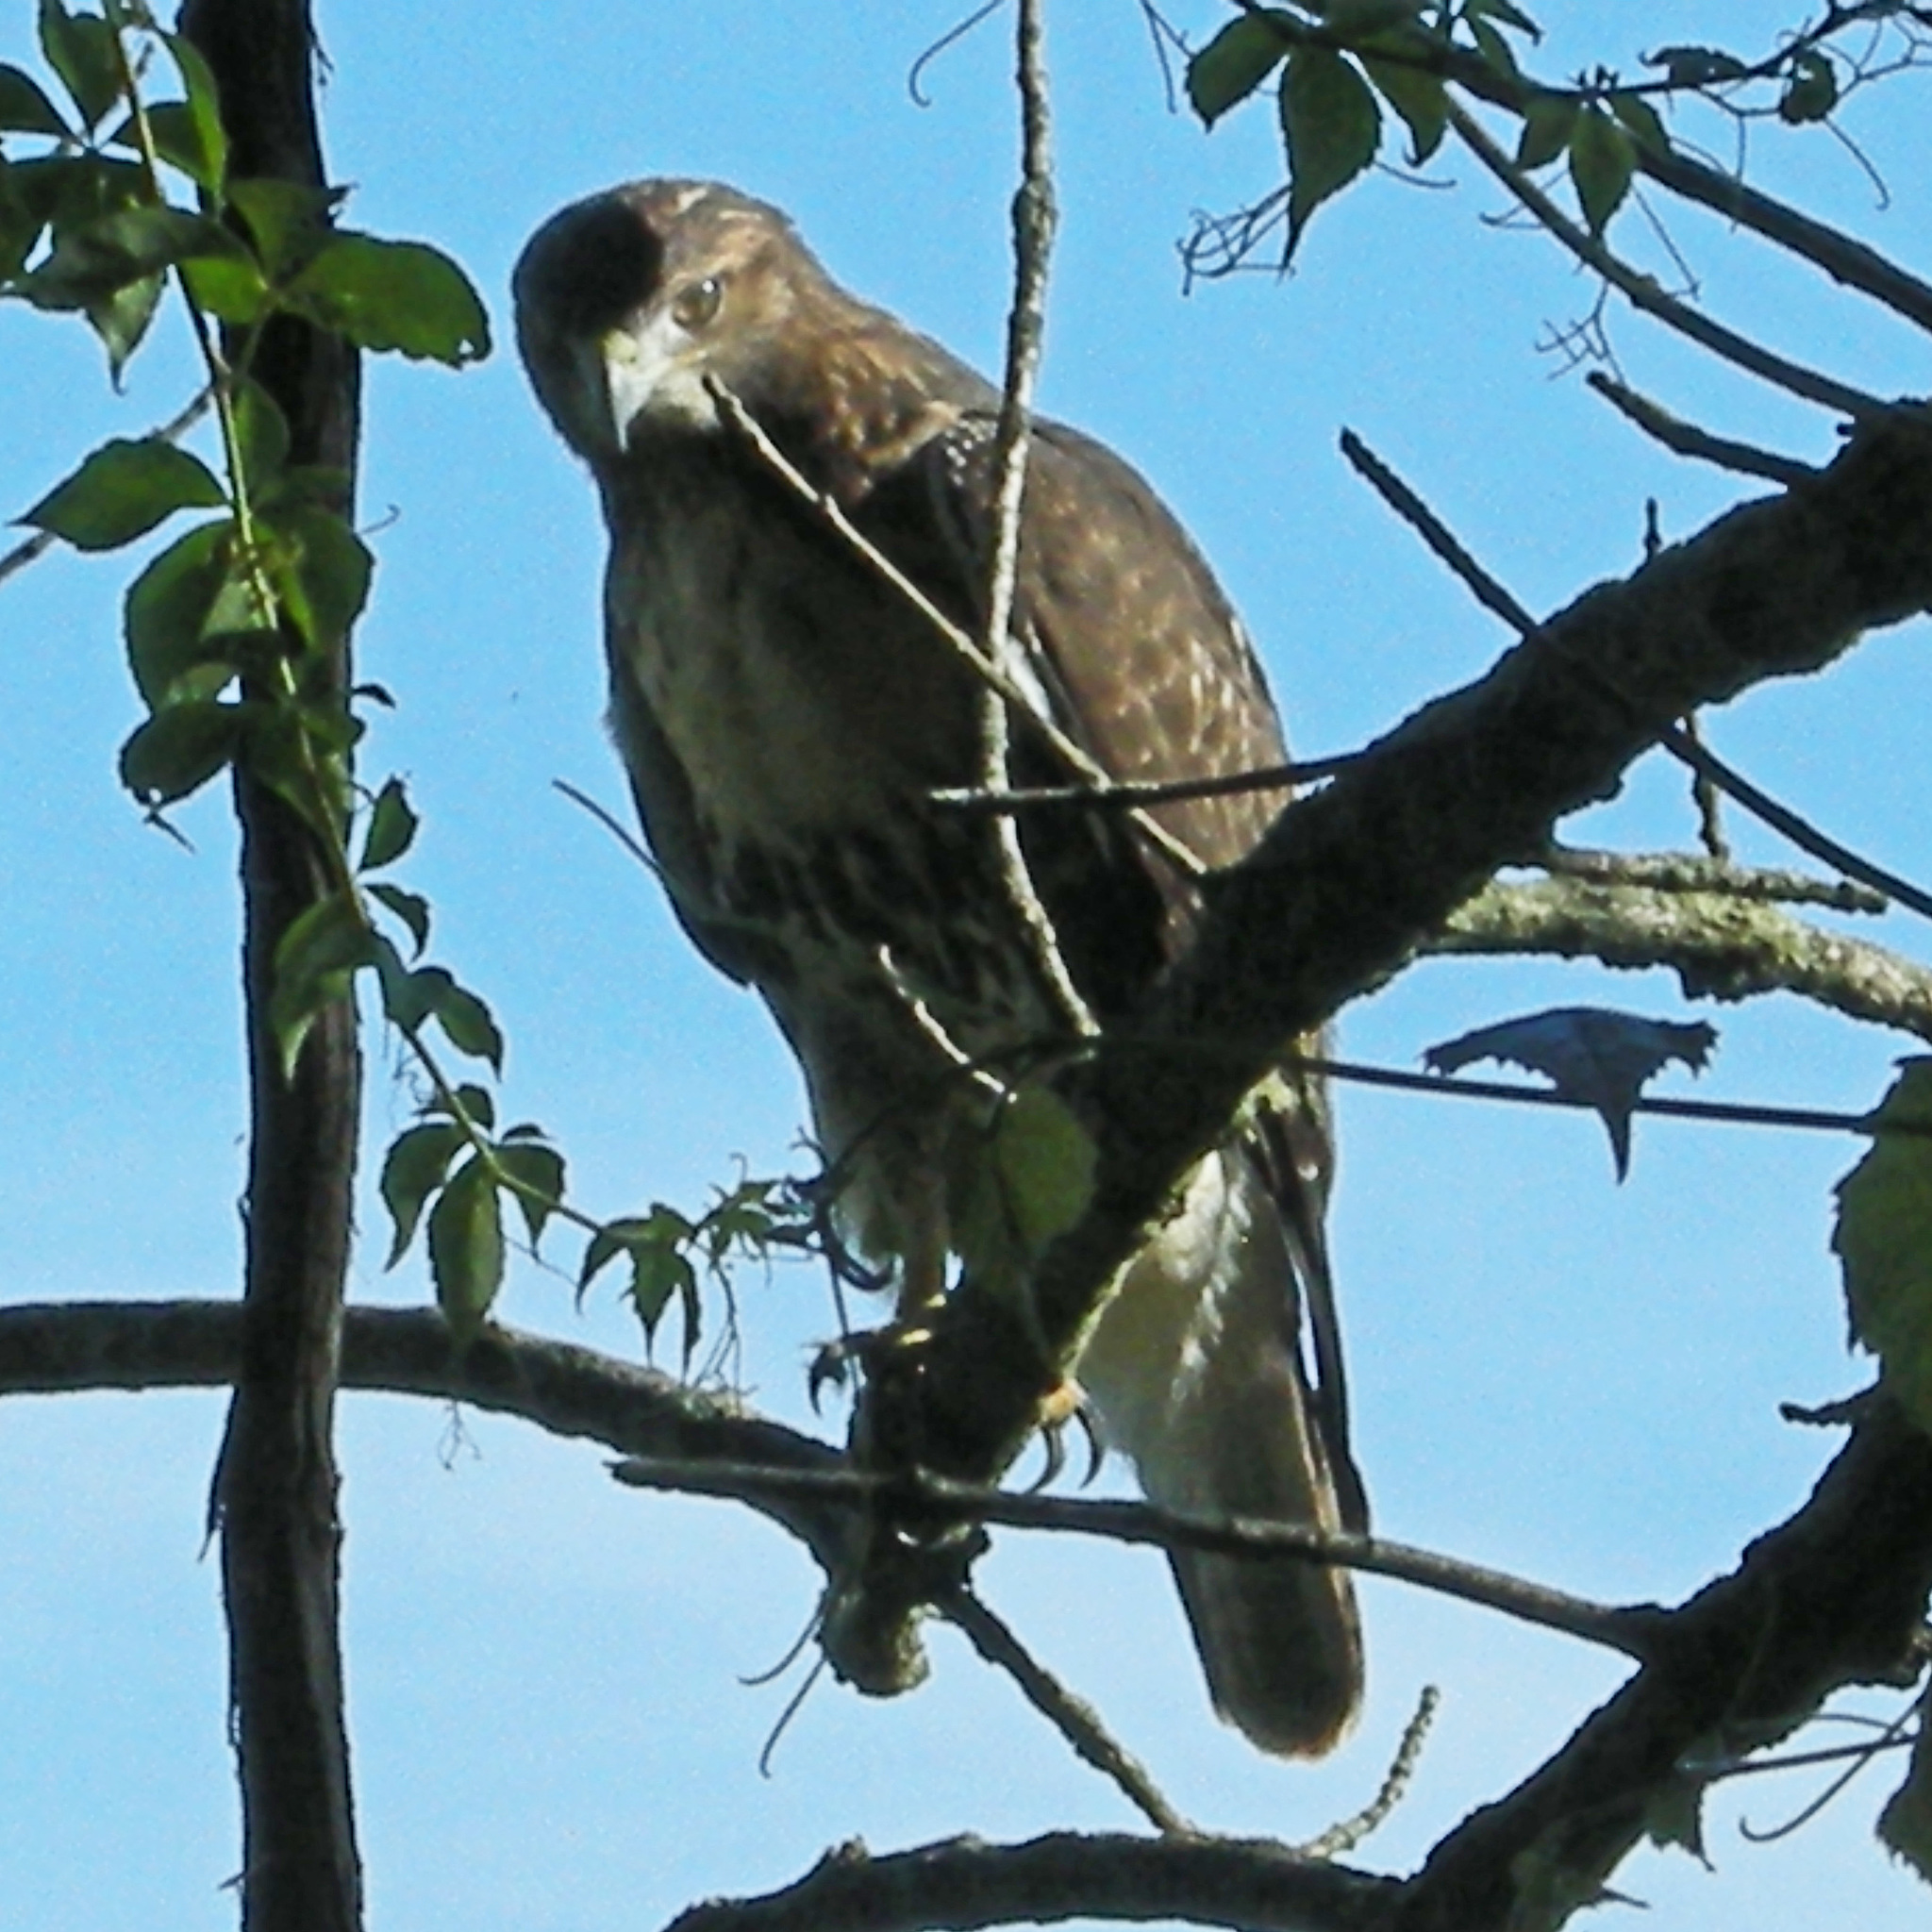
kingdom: Animalia
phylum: Chordata
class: Aves
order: Accipitriformes
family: Accipitridae
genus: Buteo
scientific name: Buteo jamaicensis
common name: Red-tailed hawk
